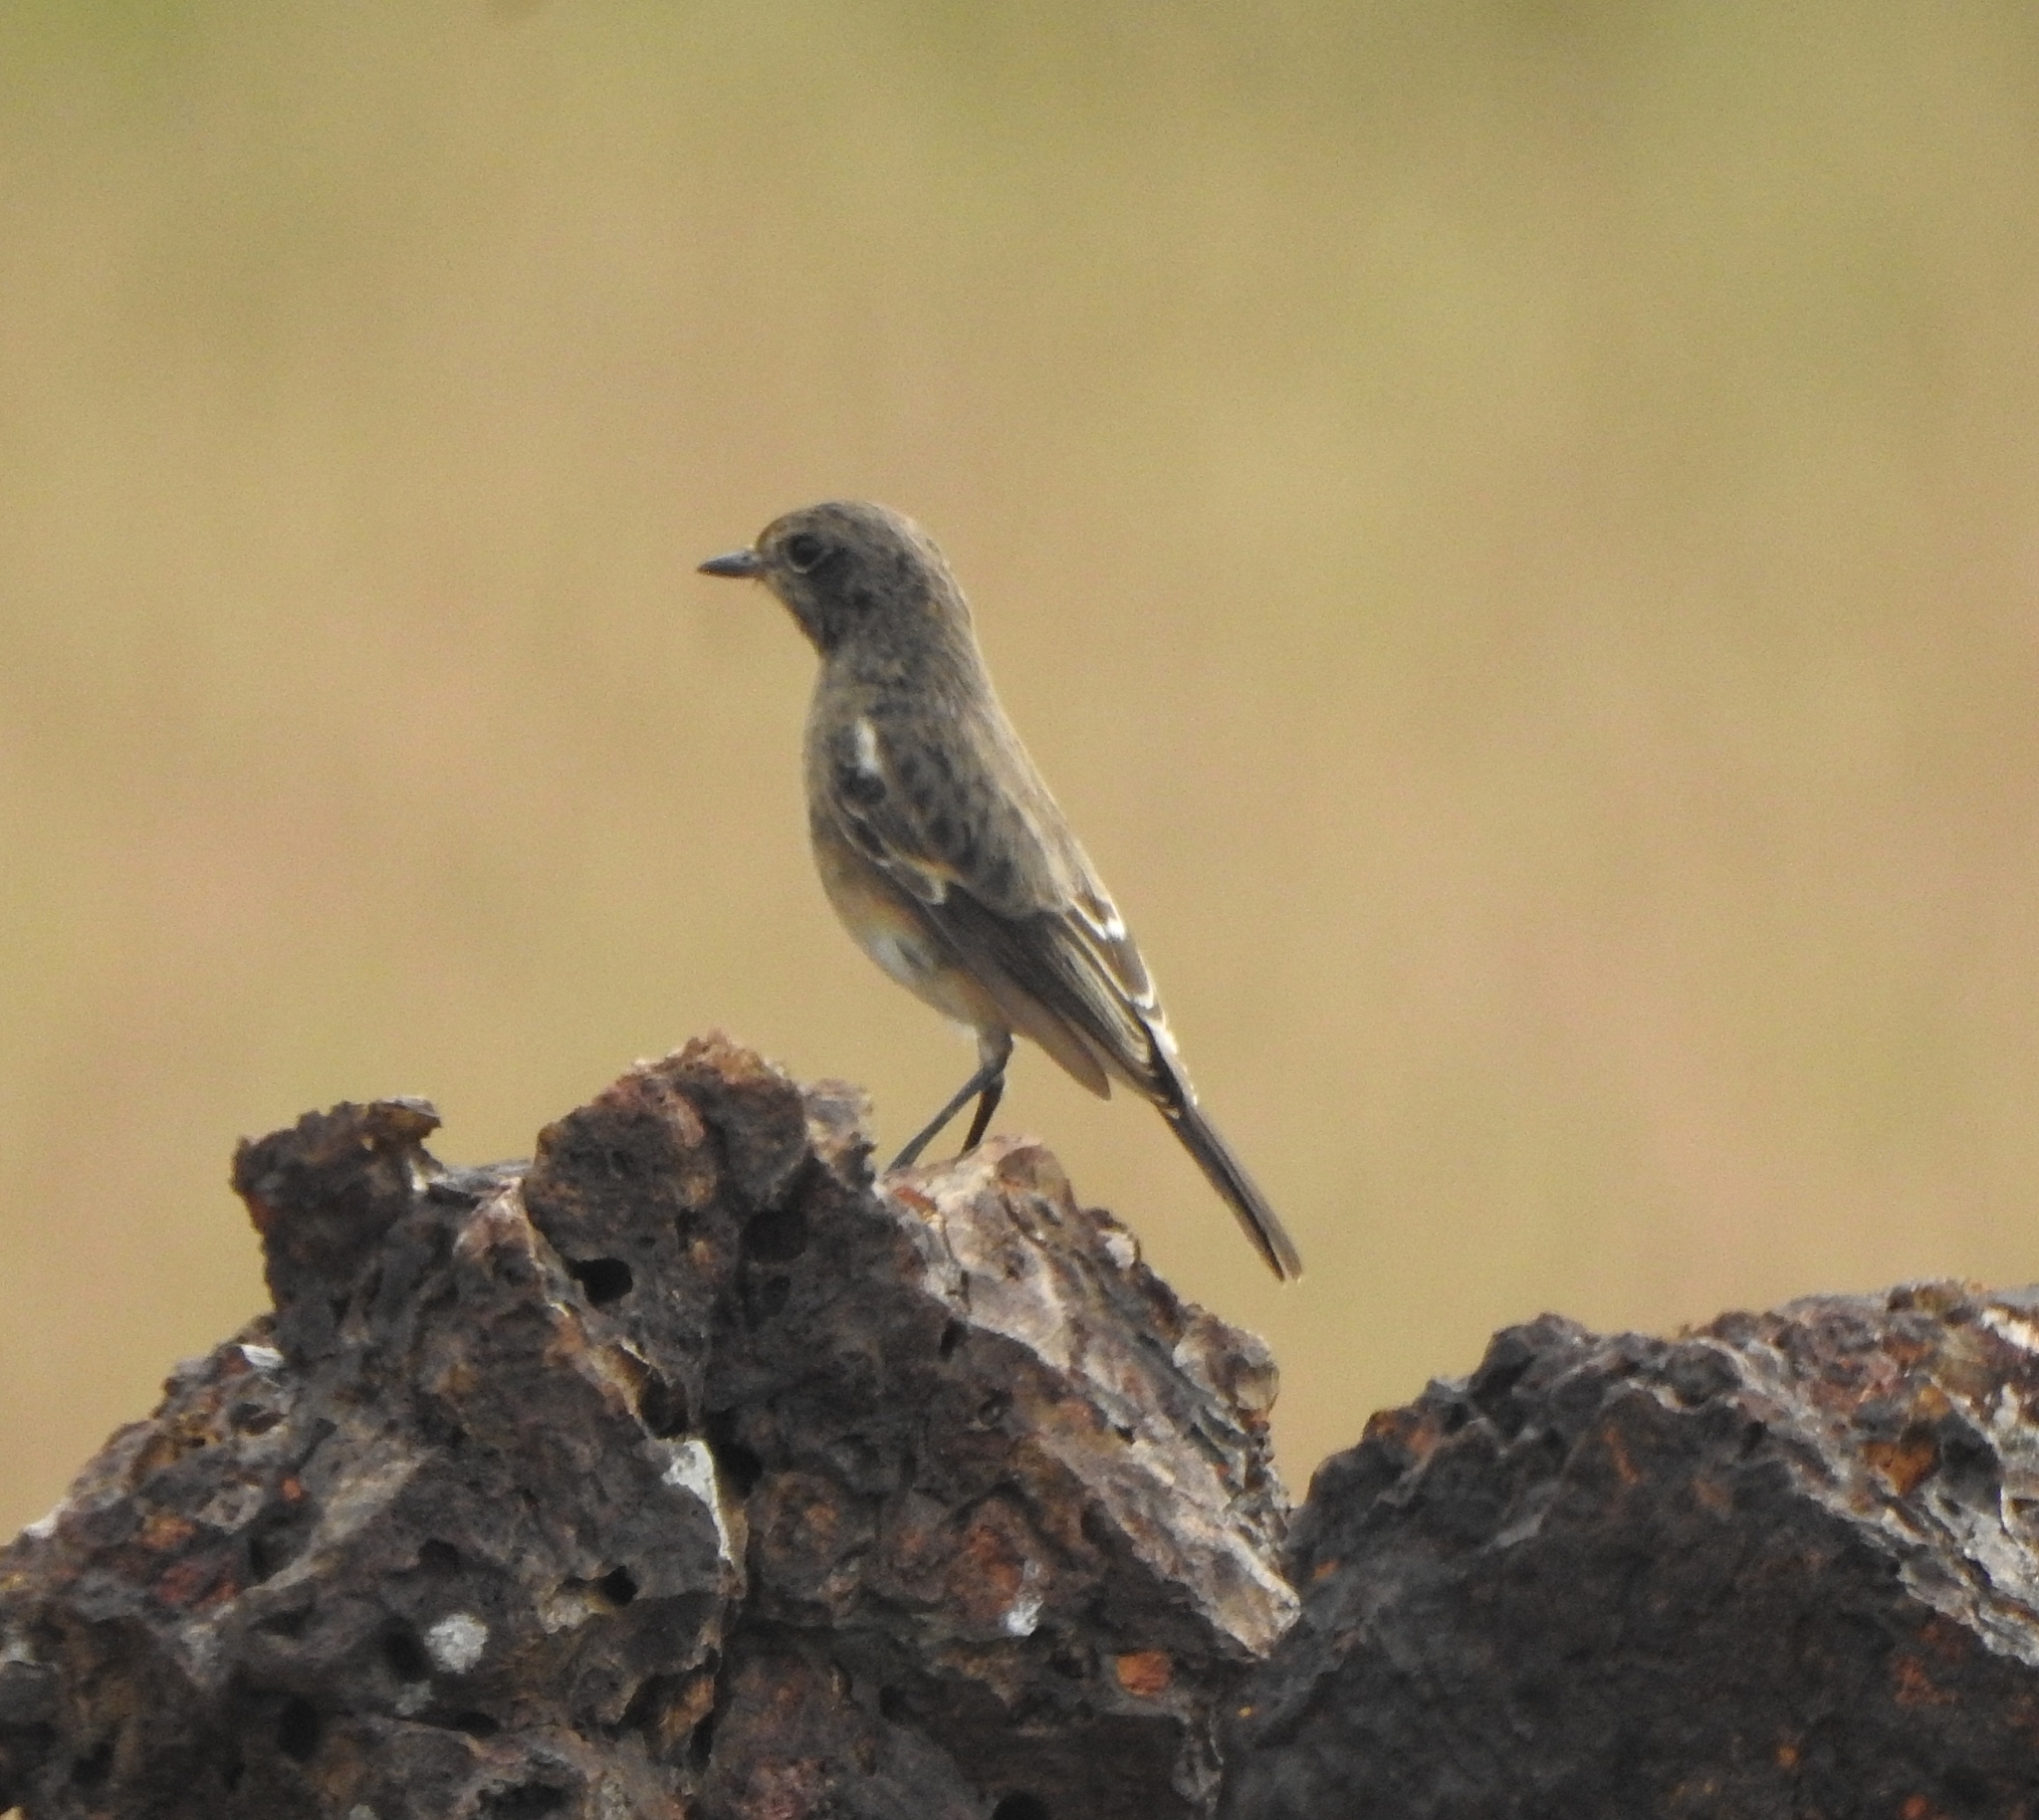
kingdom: Animalia
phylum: Chordata
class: Aves
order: Passeriformes
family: Muscicapidae
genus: Saxicola
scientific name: Saxicola caprata
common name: Pied bush chat
